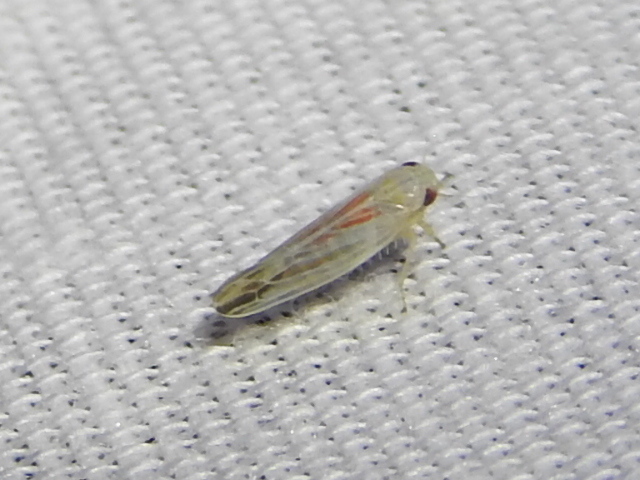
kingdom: Animalia
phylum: Arthropoda
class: Insecta
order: Hemiptera
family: Cicadellidae
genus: Balclutha
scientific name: Balclutha rubrostriata
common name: Red-streaked leafhopper
